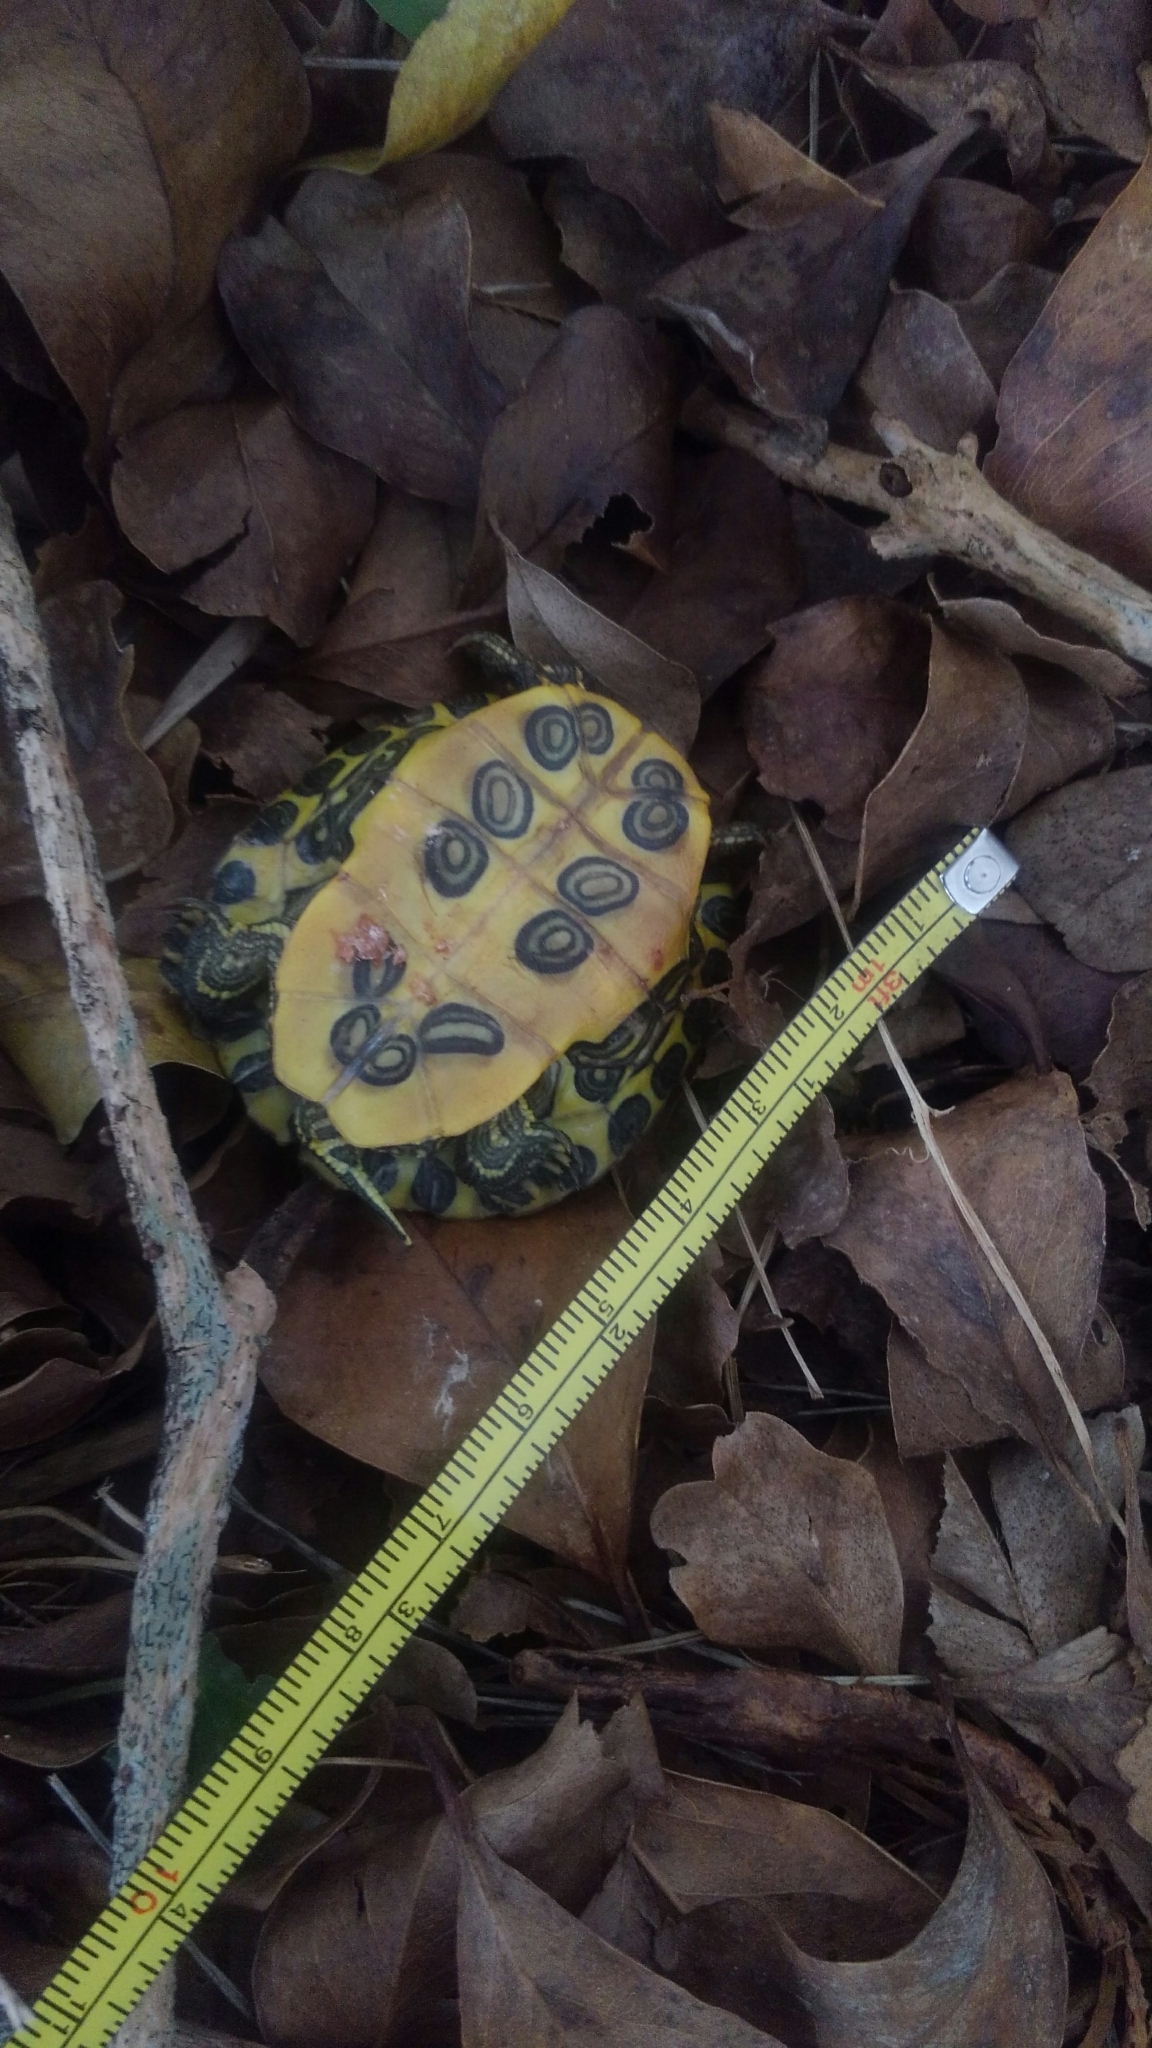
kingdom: Animalia
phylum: Chordata
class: Testudines
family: Emydidae
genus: Trachemys
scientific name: Trachemys scripta
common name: Slider
